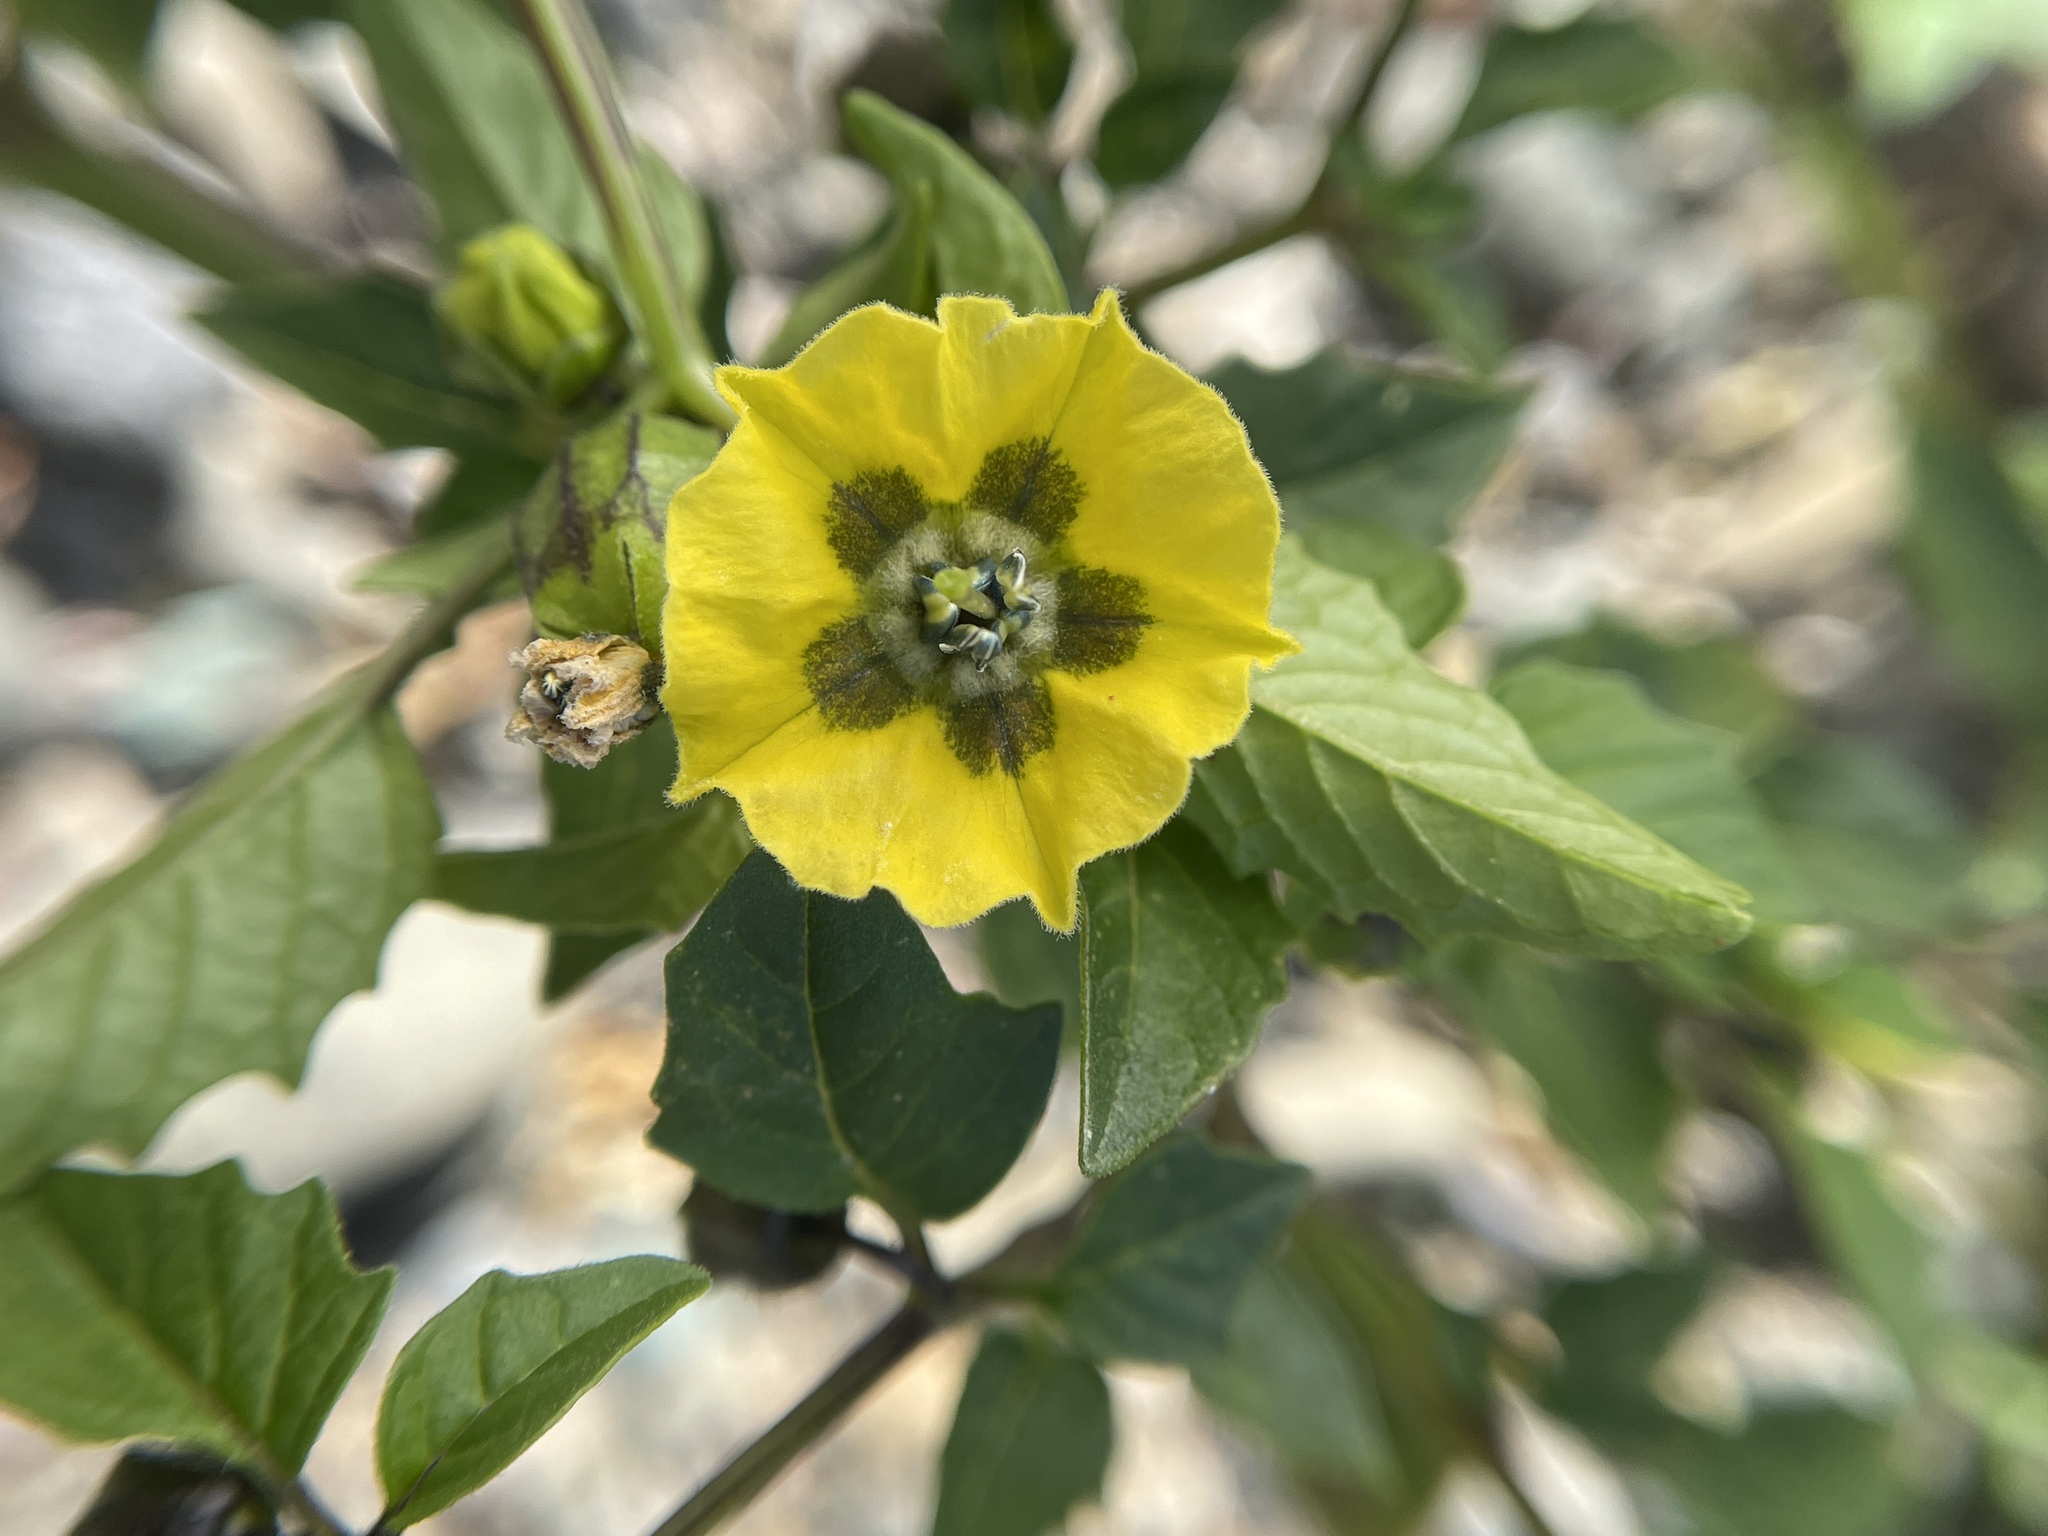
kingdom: Plantae
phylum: Tracheophyta
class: Magnoliopsida
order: Solanales
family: Solanaceae
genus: Physalis
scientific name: Physalis philadelphica
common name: Husk-tomato
